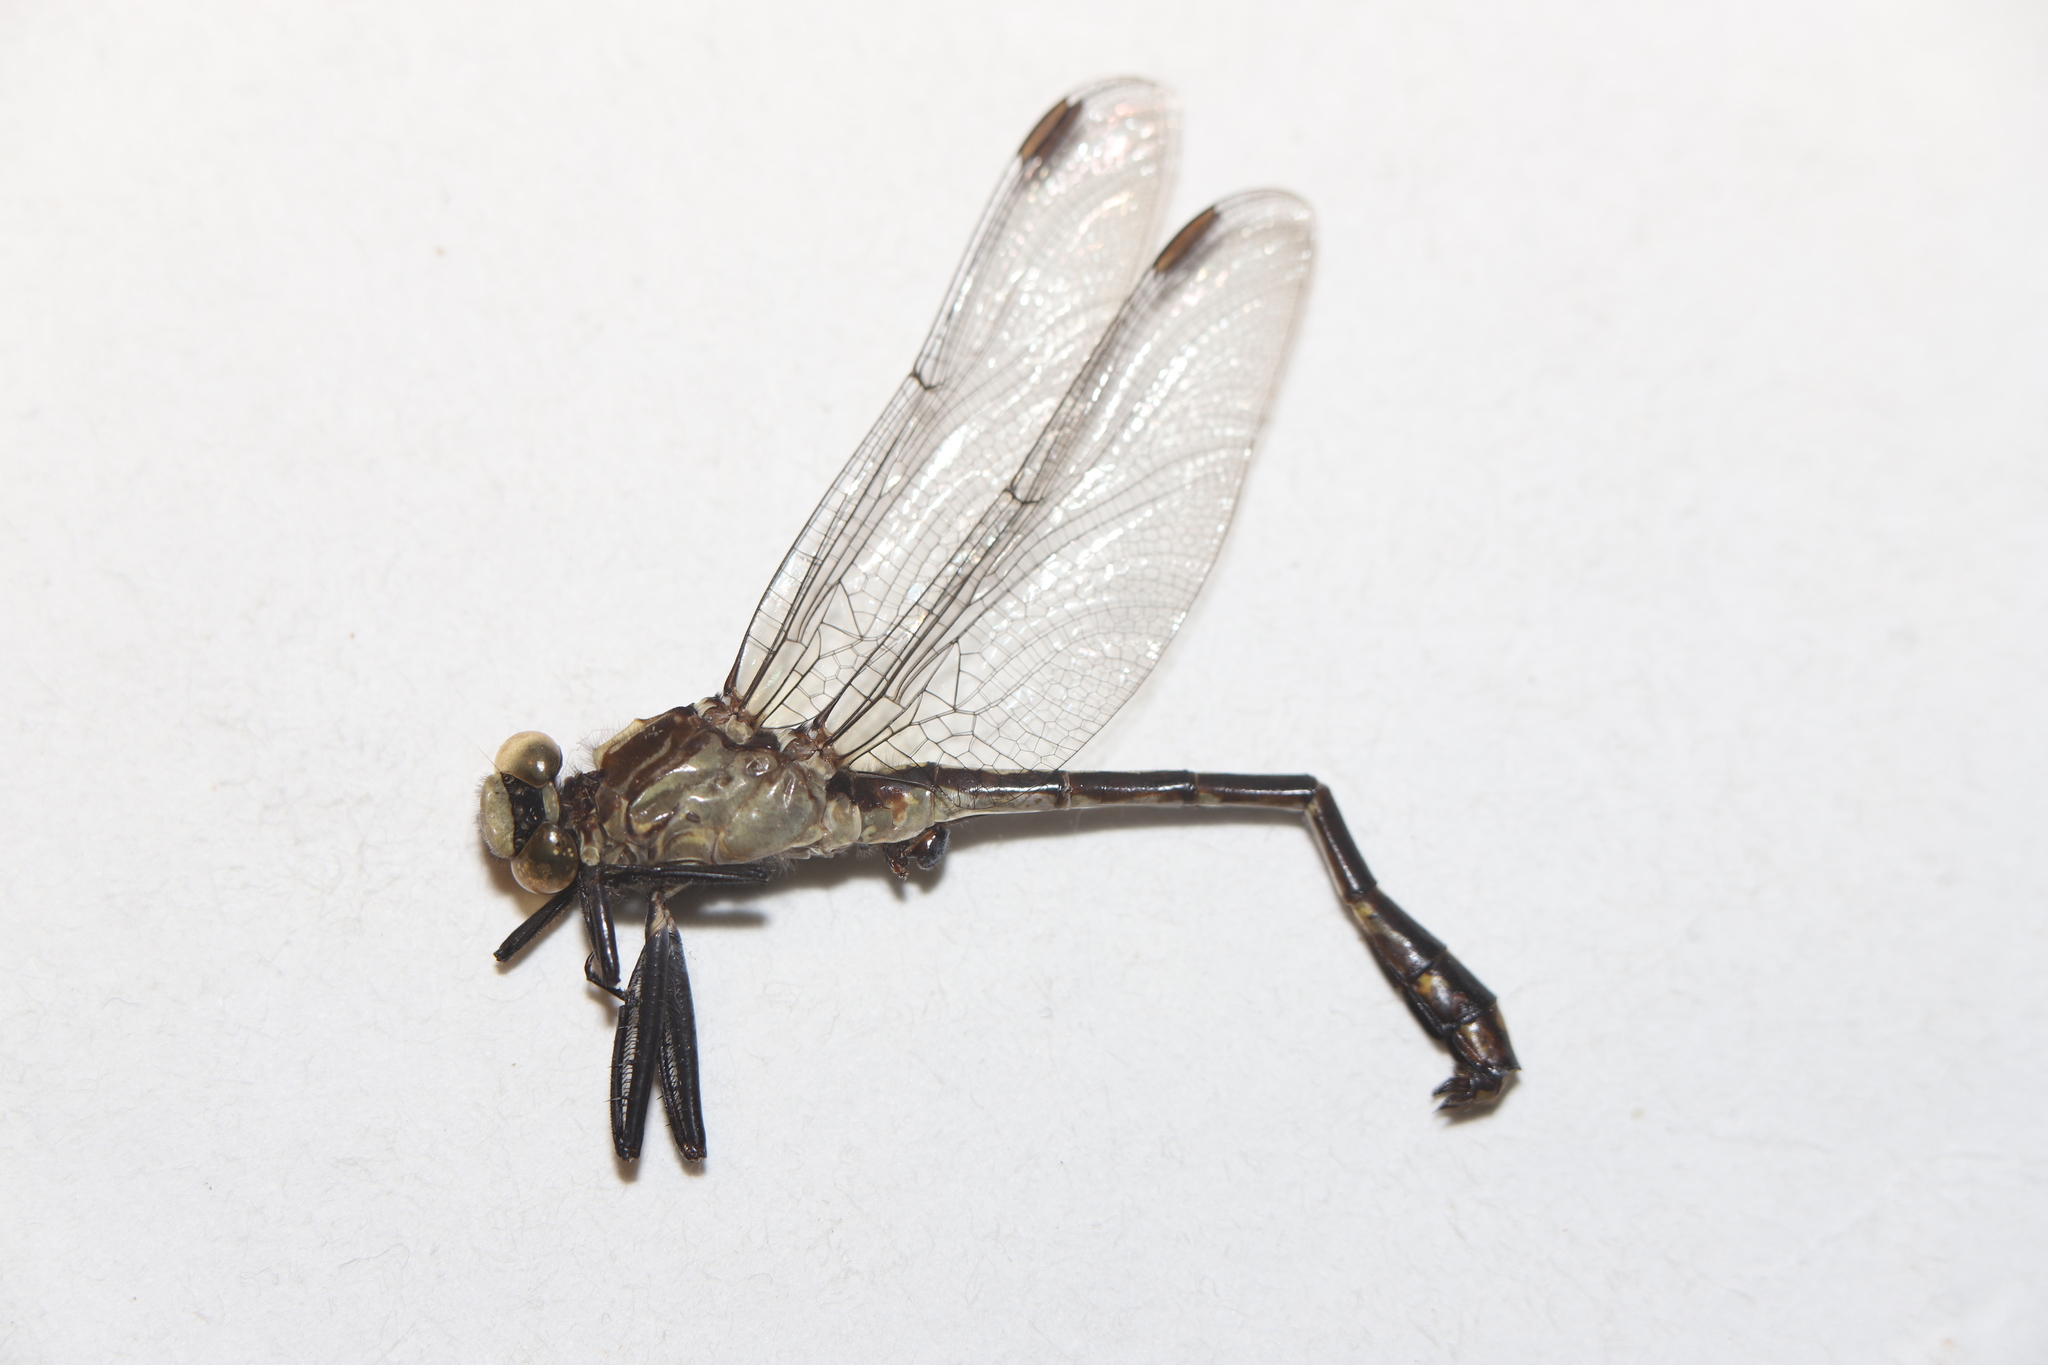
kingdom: Animalia
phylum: Arthropoda
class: Insecta
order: Odonata
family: Gomphidae
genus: Dromogomphus
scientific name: Dromogomphus spinosus
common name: Black-shouldered spinyleg
